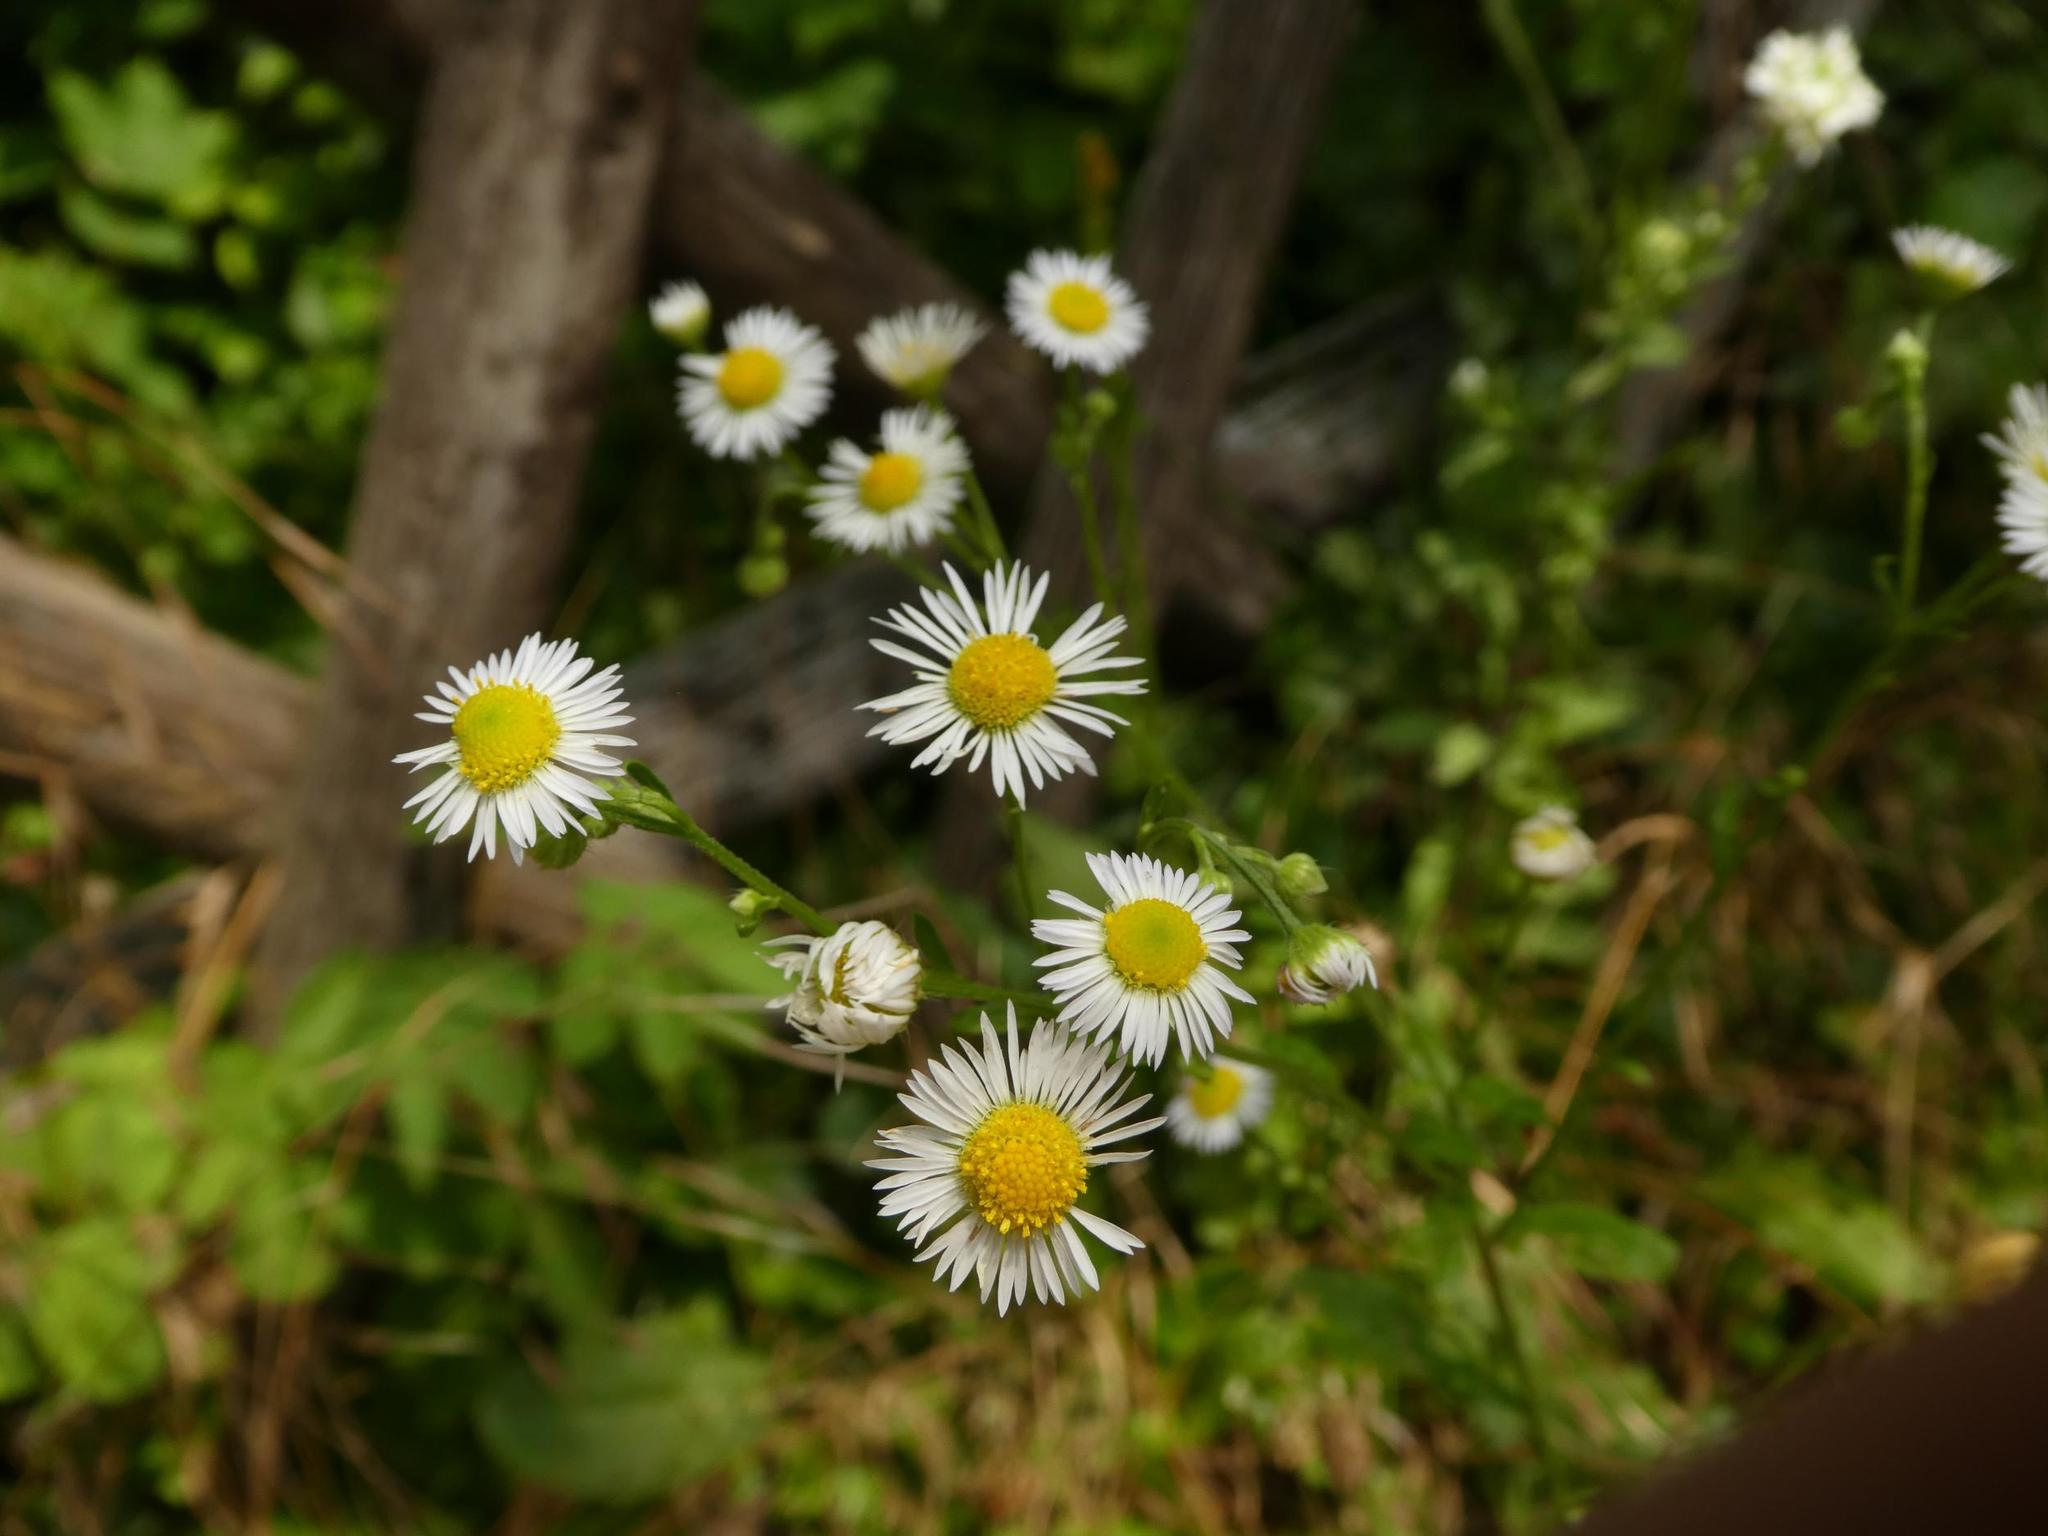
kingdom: Plantae
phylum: Tracheophyta
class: Magnoliopsida
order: Asterales
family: Asteraceae
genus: Erigeron
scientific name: Erigeron annuus
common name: Tall fleabane
